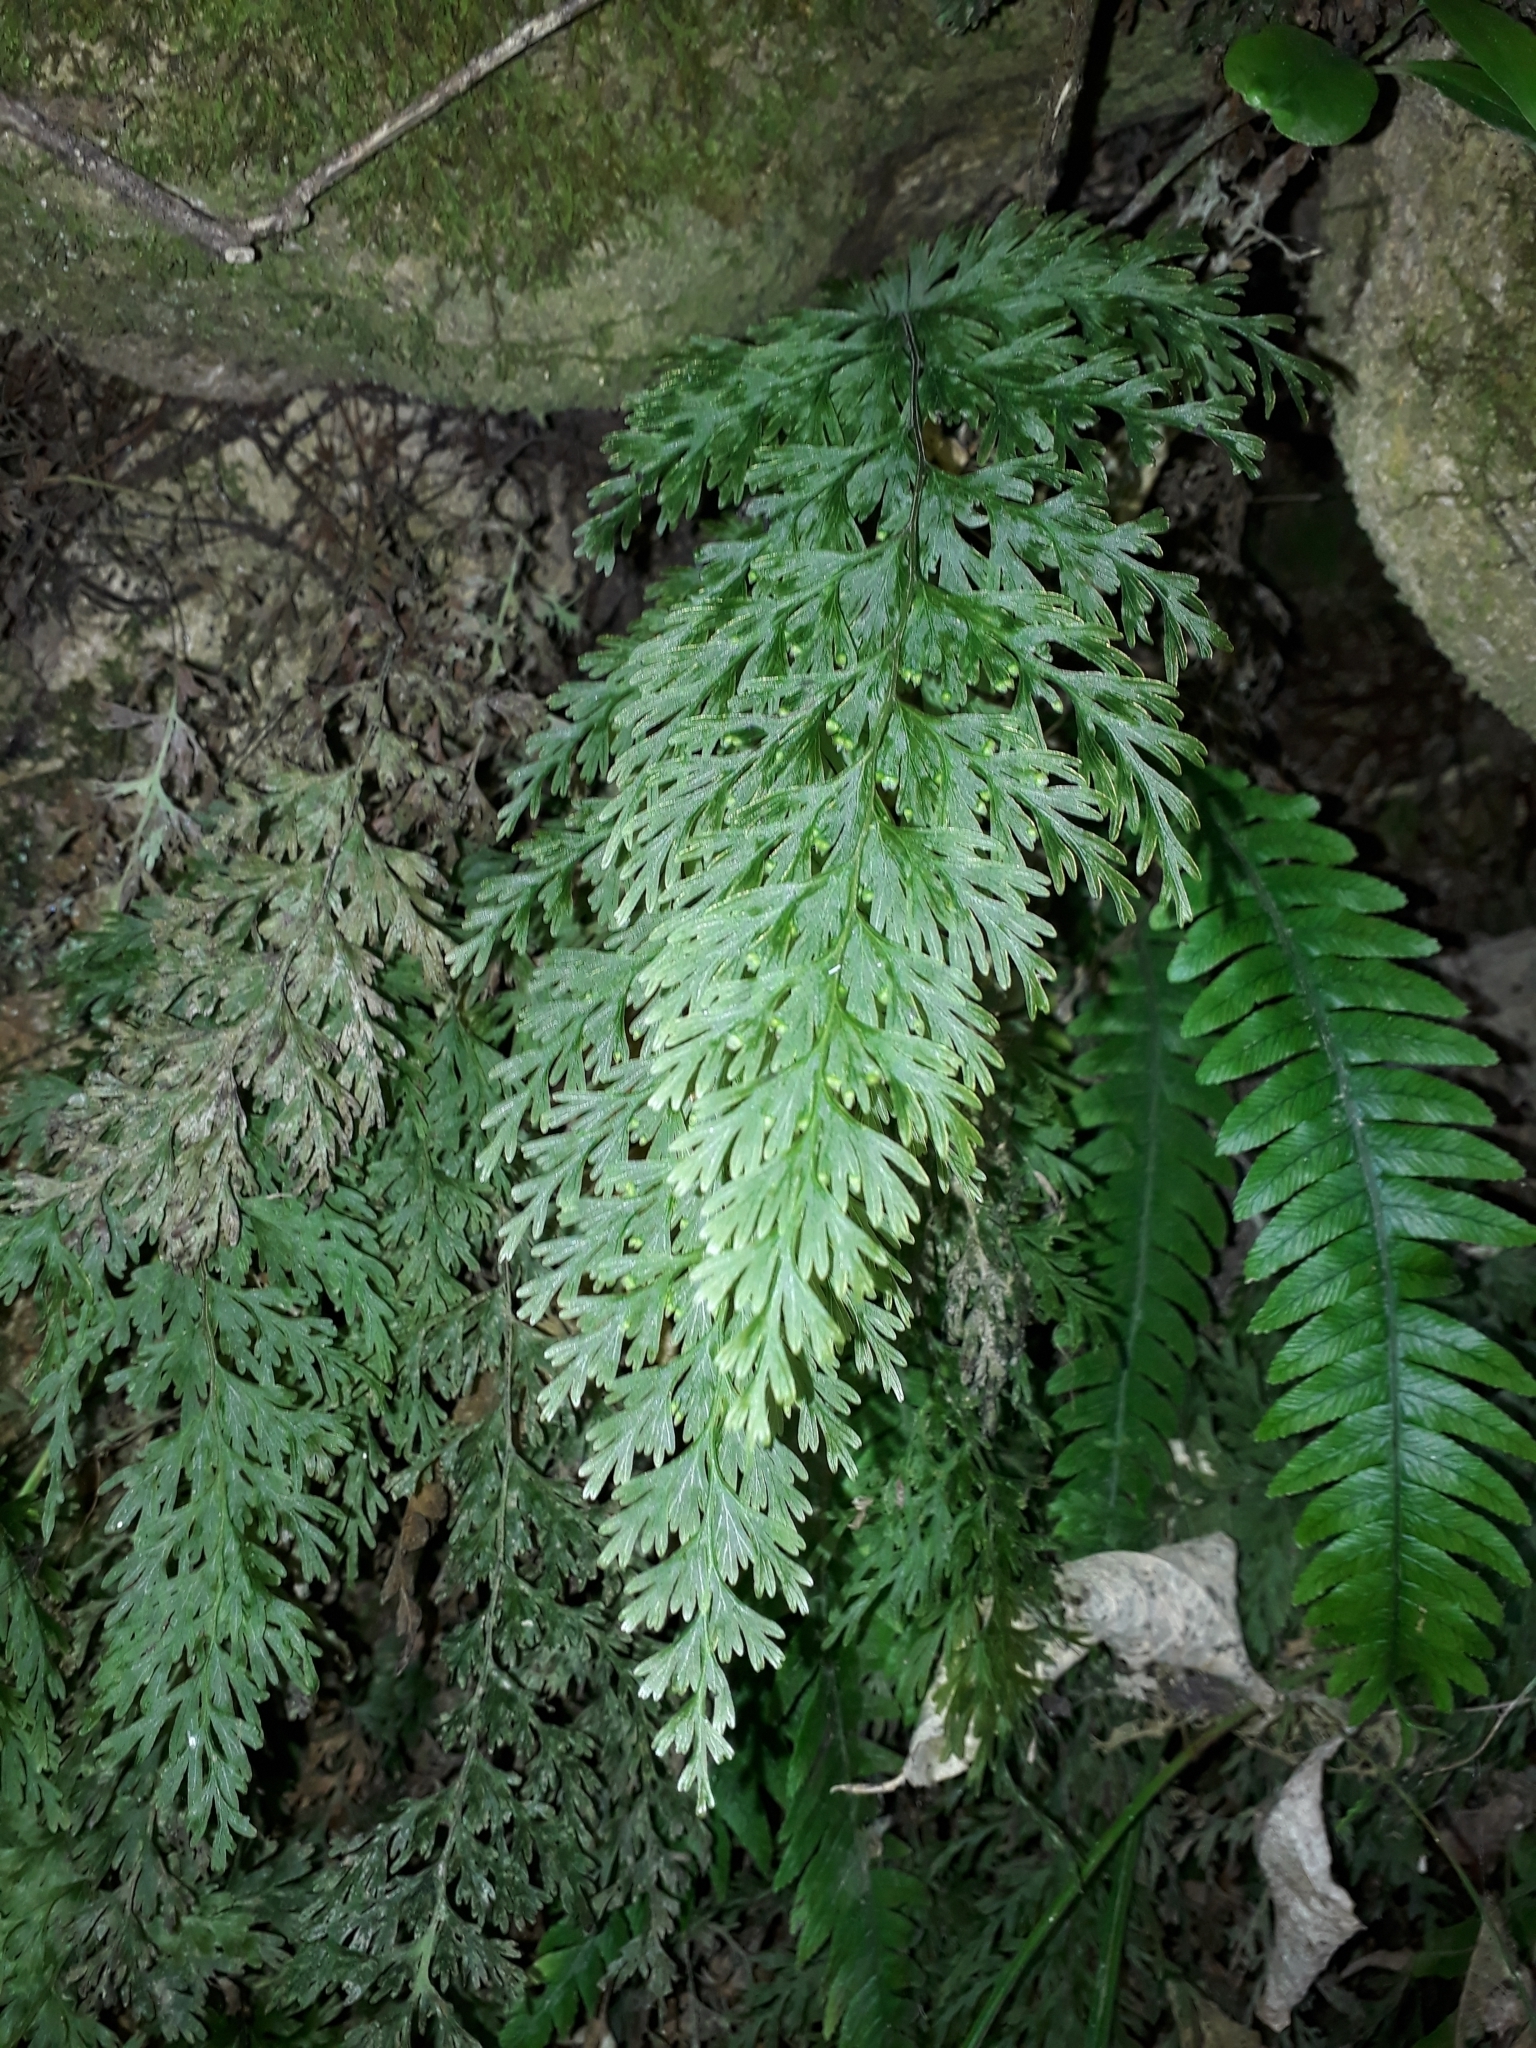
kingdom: Plantae
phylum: Tracheophyta
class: Polypodiopsida
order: Hymenophyllales
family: Hymenophyllaceae
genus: Hymenophyllum
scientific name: Hymenophyllum demissum
